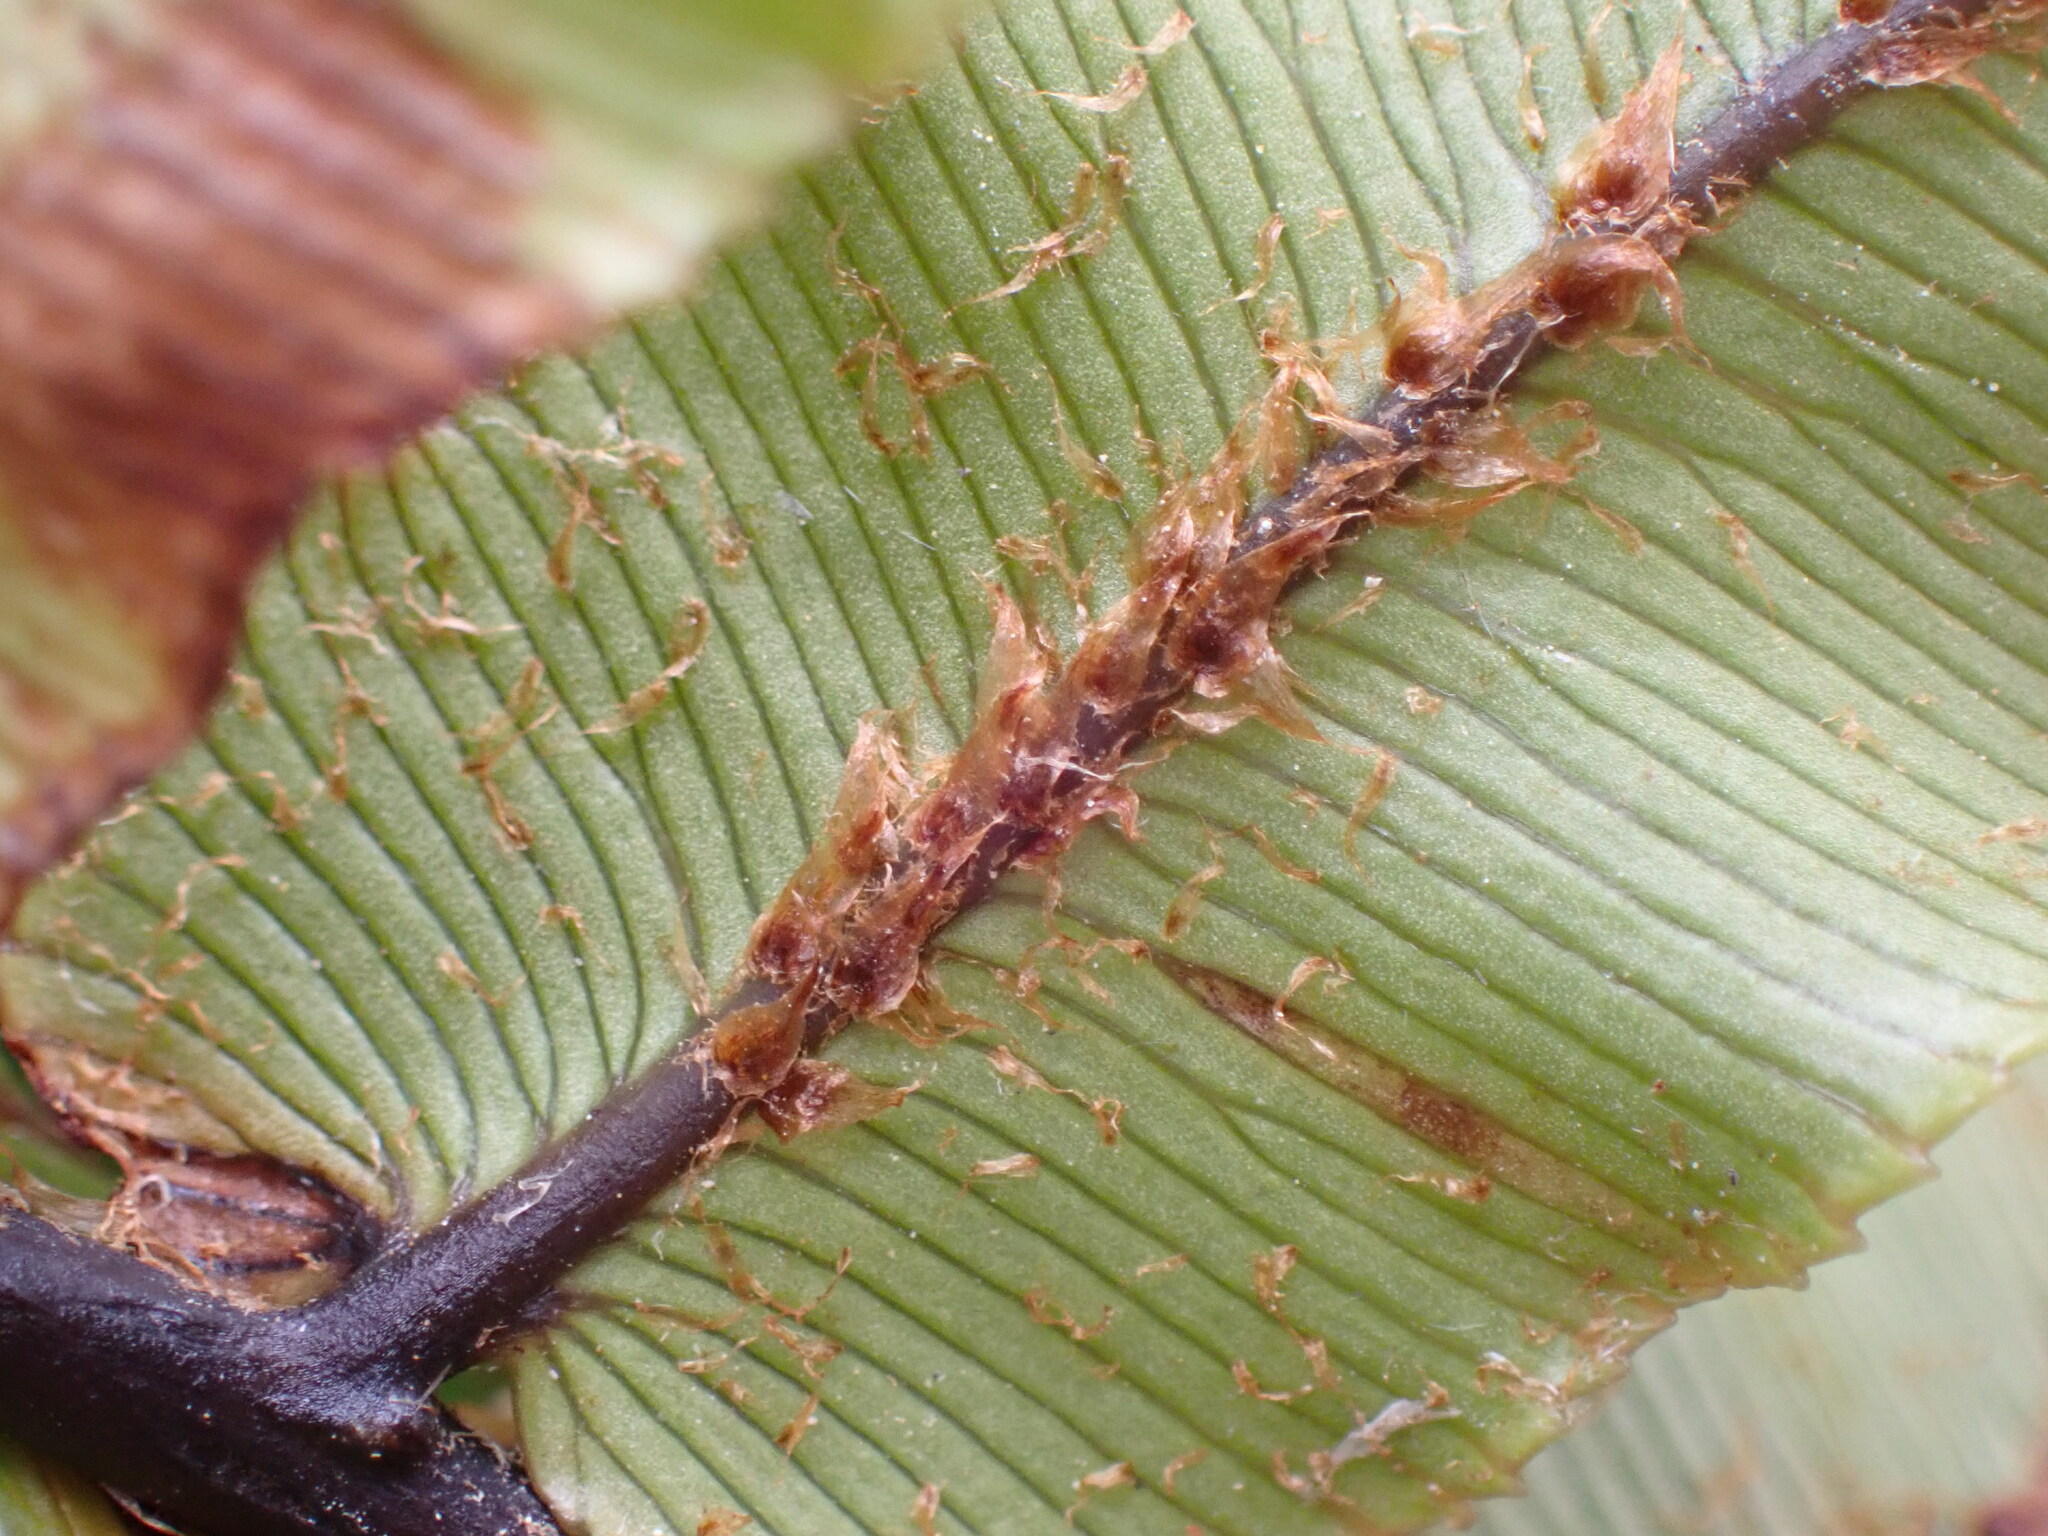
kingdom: Plantae
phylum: Tracheophyta
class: Polypodiopsida
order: Polypodiales
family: Blechnaceae
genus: Parablechnum
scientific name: Parablechnum procerum
